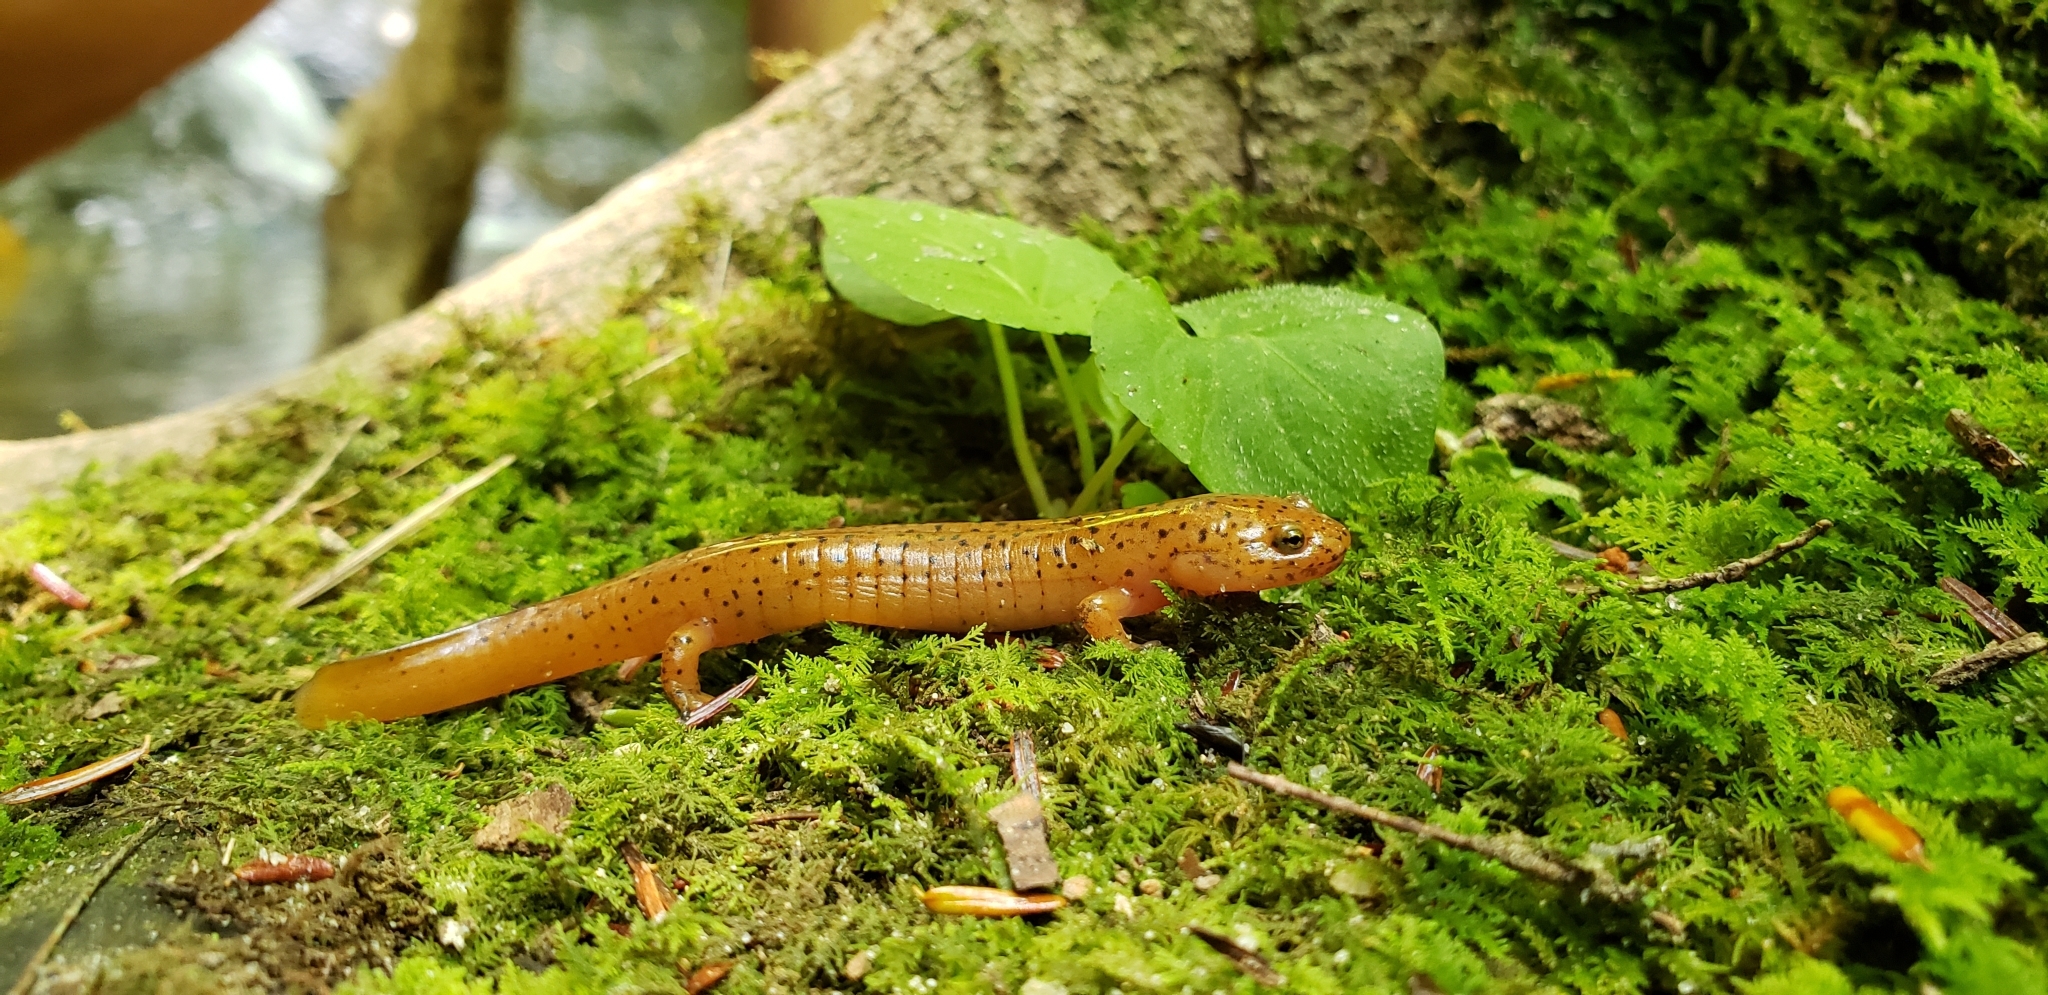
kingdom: Animalia
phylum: Chordata
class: Amphibia
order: Caudata
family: Plethodontidae
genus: Pseudotriton
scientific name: Pseudotriton ruber
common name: Red salamander
